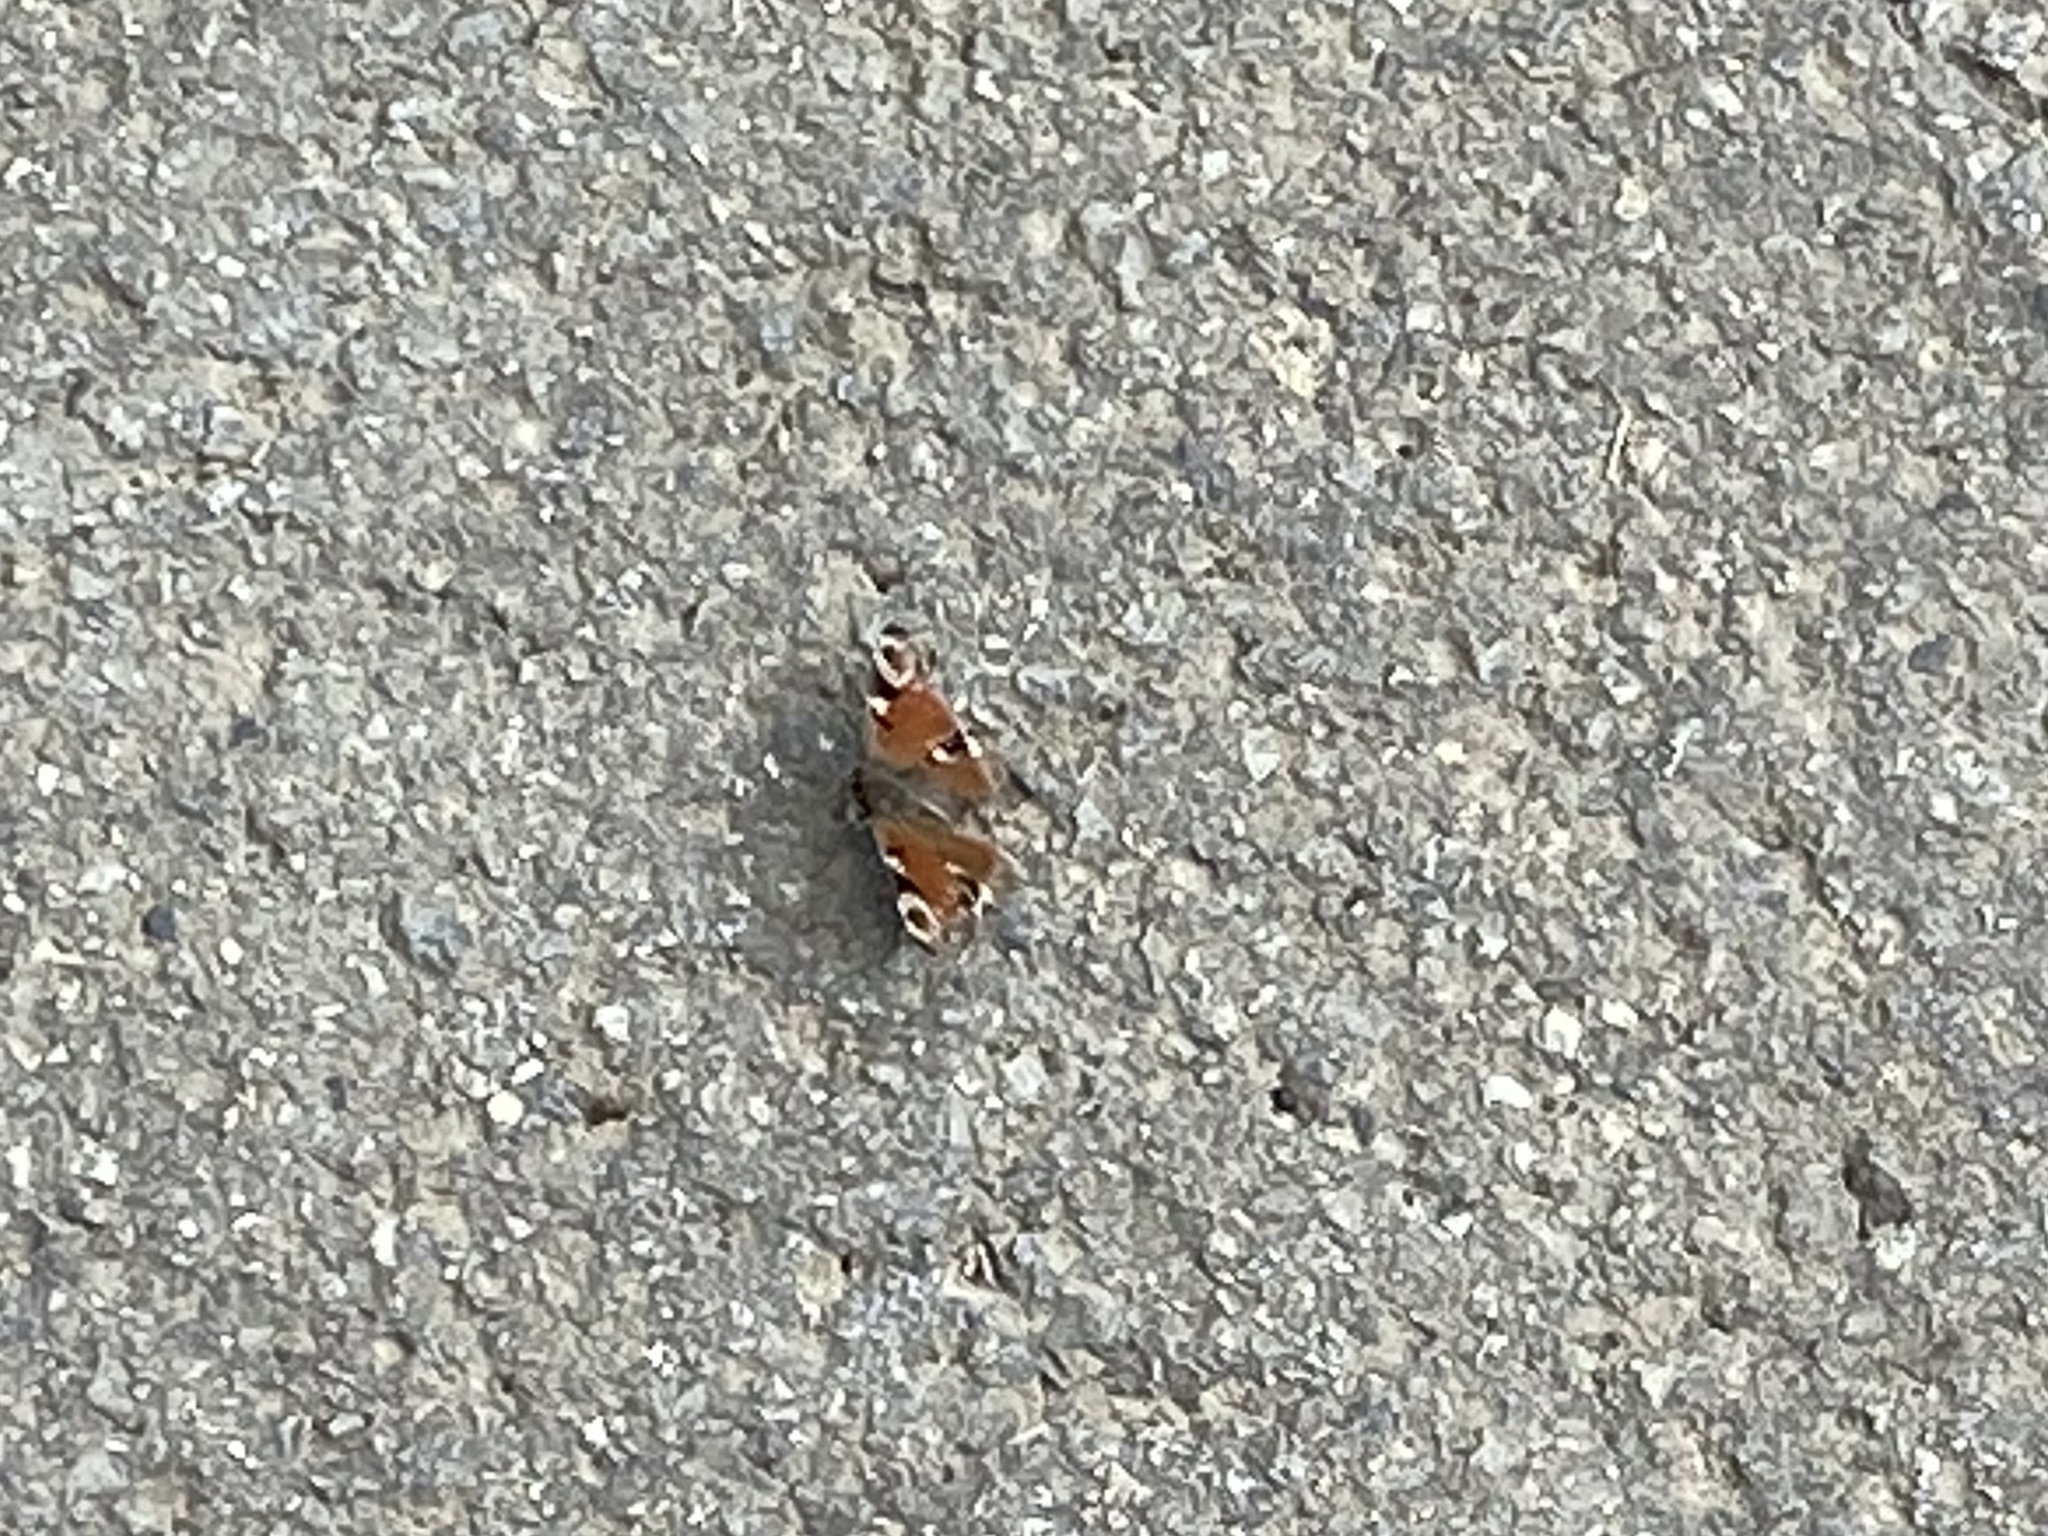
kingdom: Animalia
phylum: Arthropoda
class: Insecta
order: Lepidoptera
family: Nymphalidae
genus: Aglais
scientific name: Aglais io
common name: Peacock
